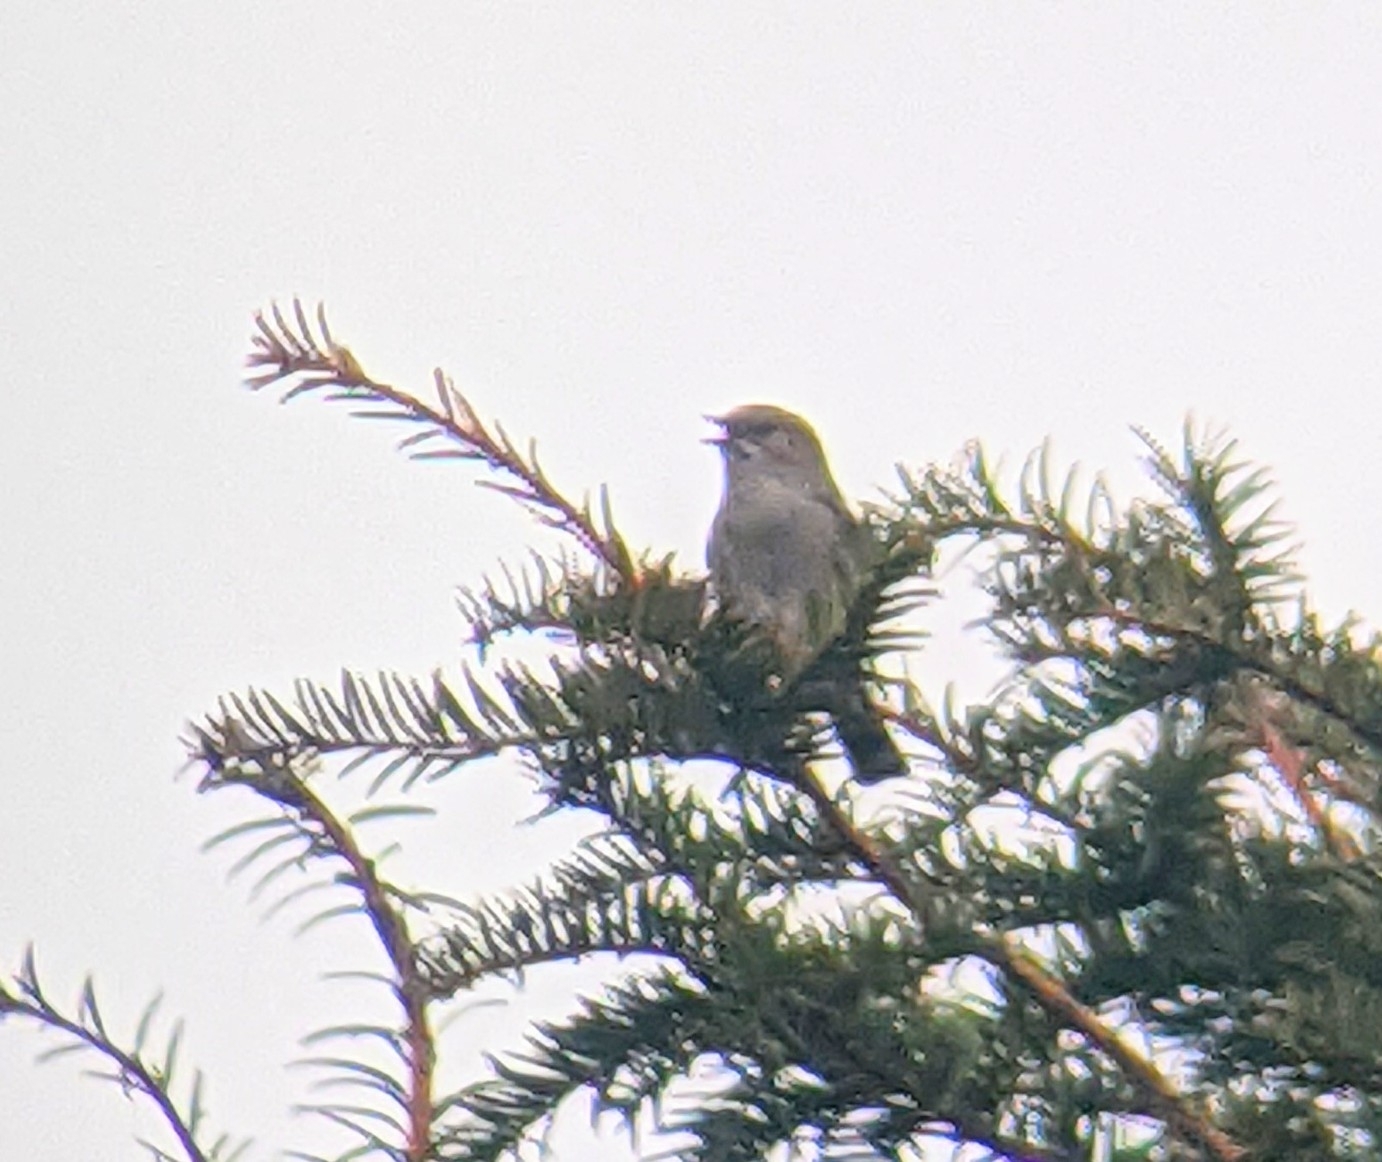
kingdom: Animalia
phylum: Chordata
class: Aves
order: Passeriformes
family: Prunellidae
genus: Prunella
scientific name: Prunella modularis
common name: Dunnock
